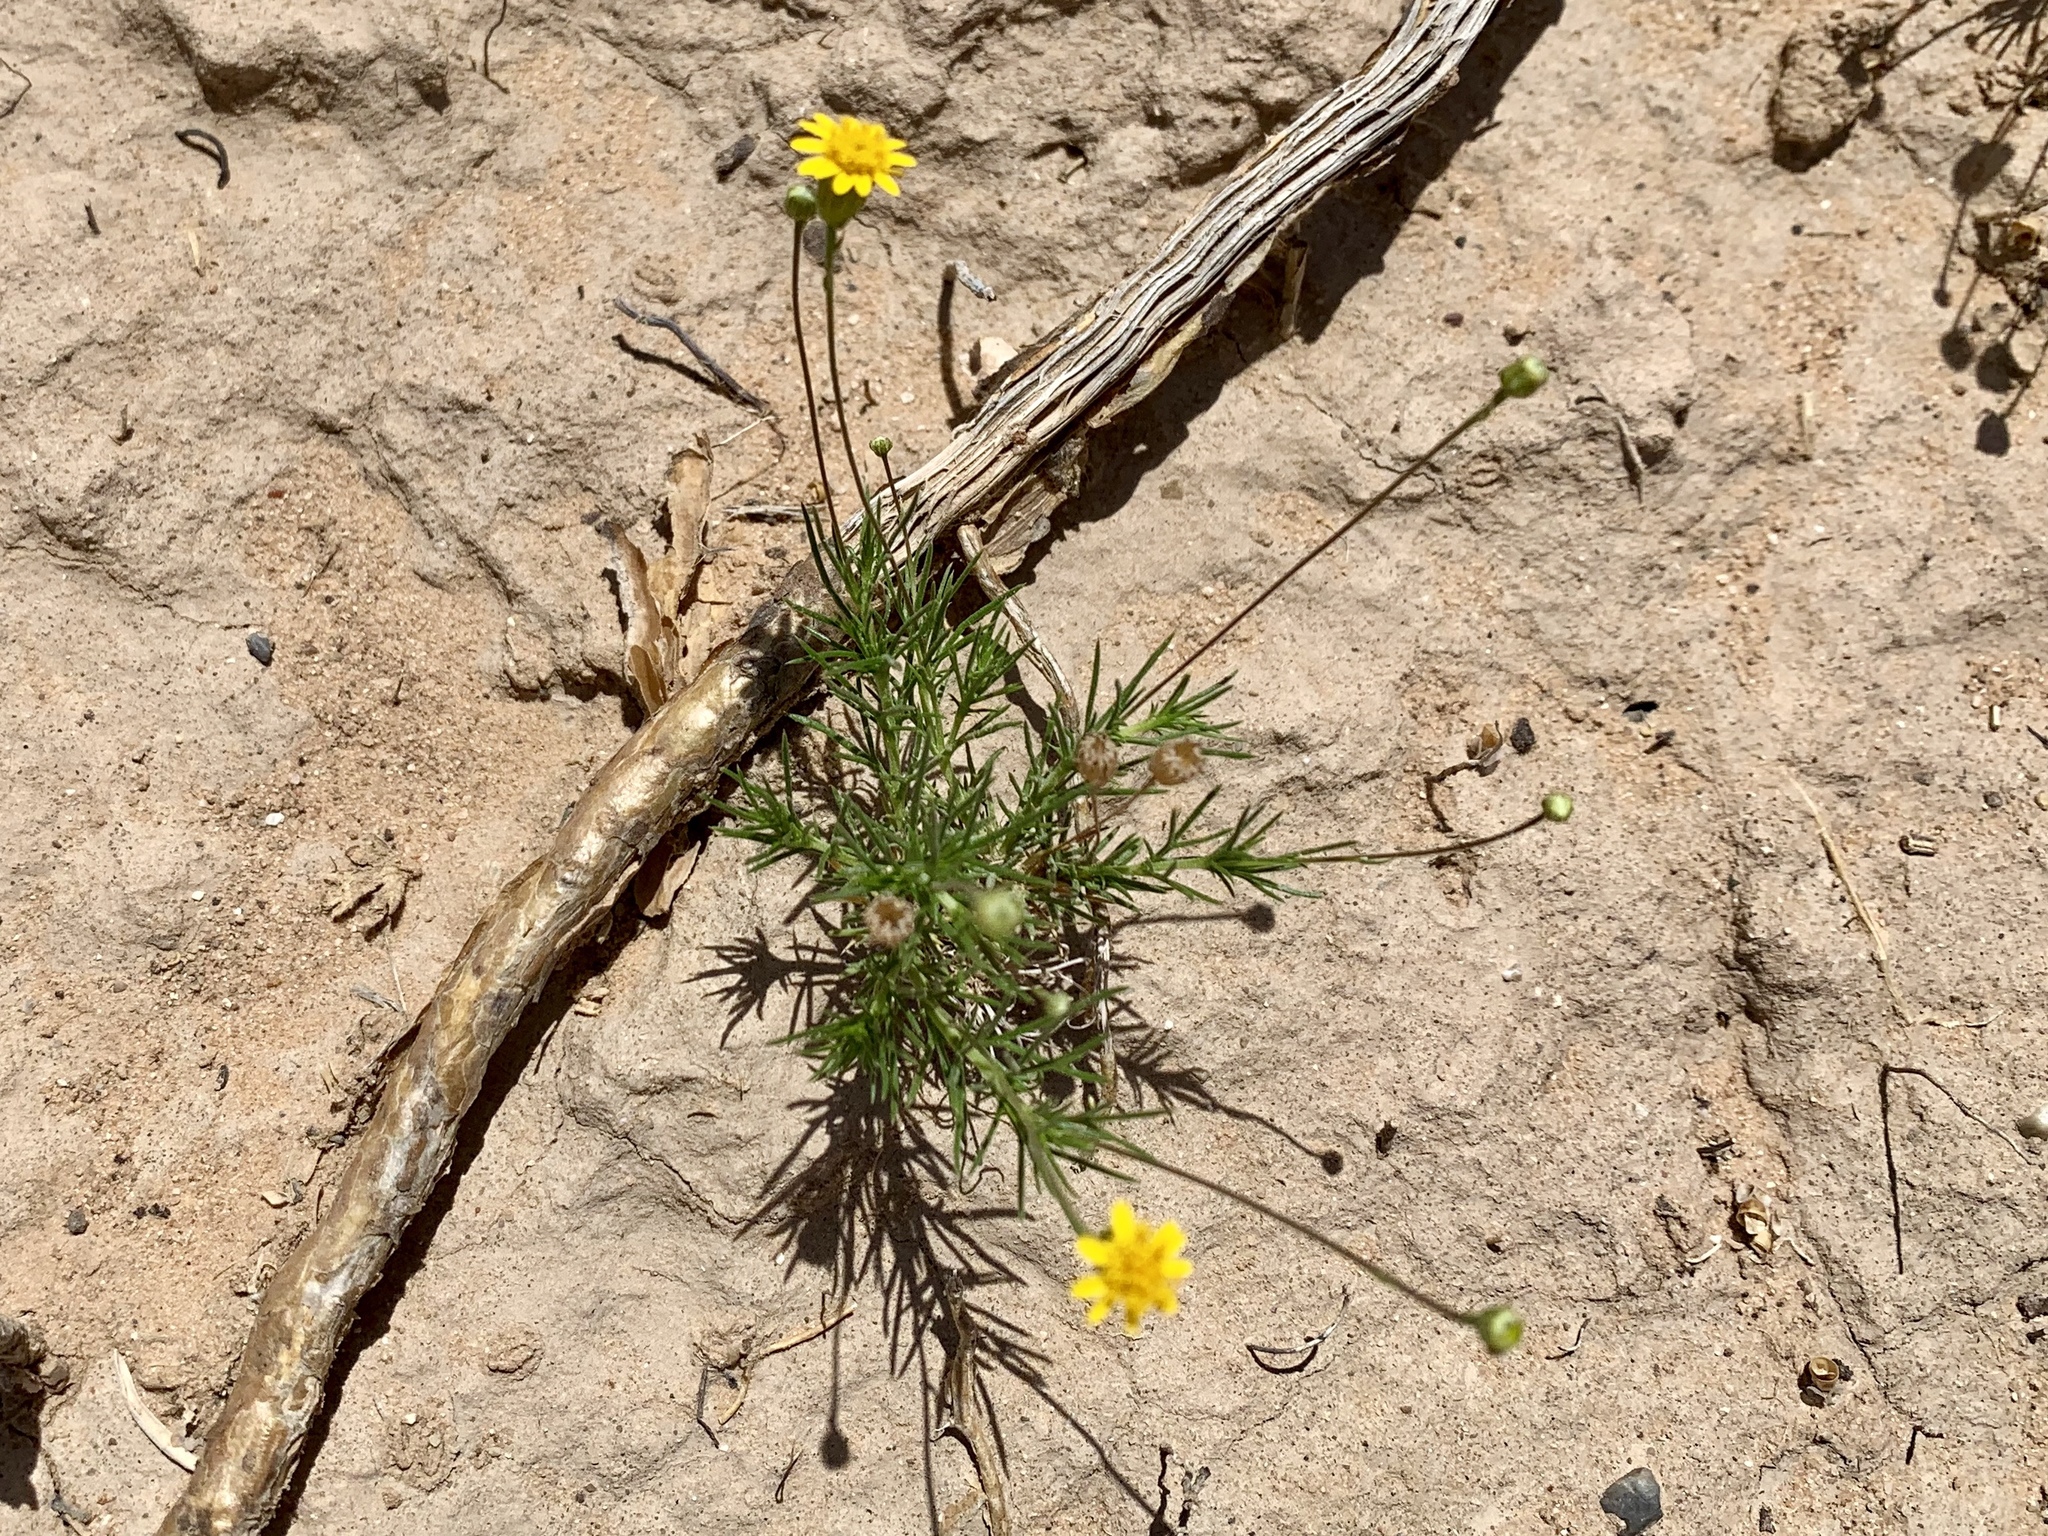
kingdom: Plantae
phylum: Tracheophyta
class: Magnoliopsida
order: Asterales
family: Asteraceae
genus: Thymophylla
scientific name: Thymophylla pentachaeta
